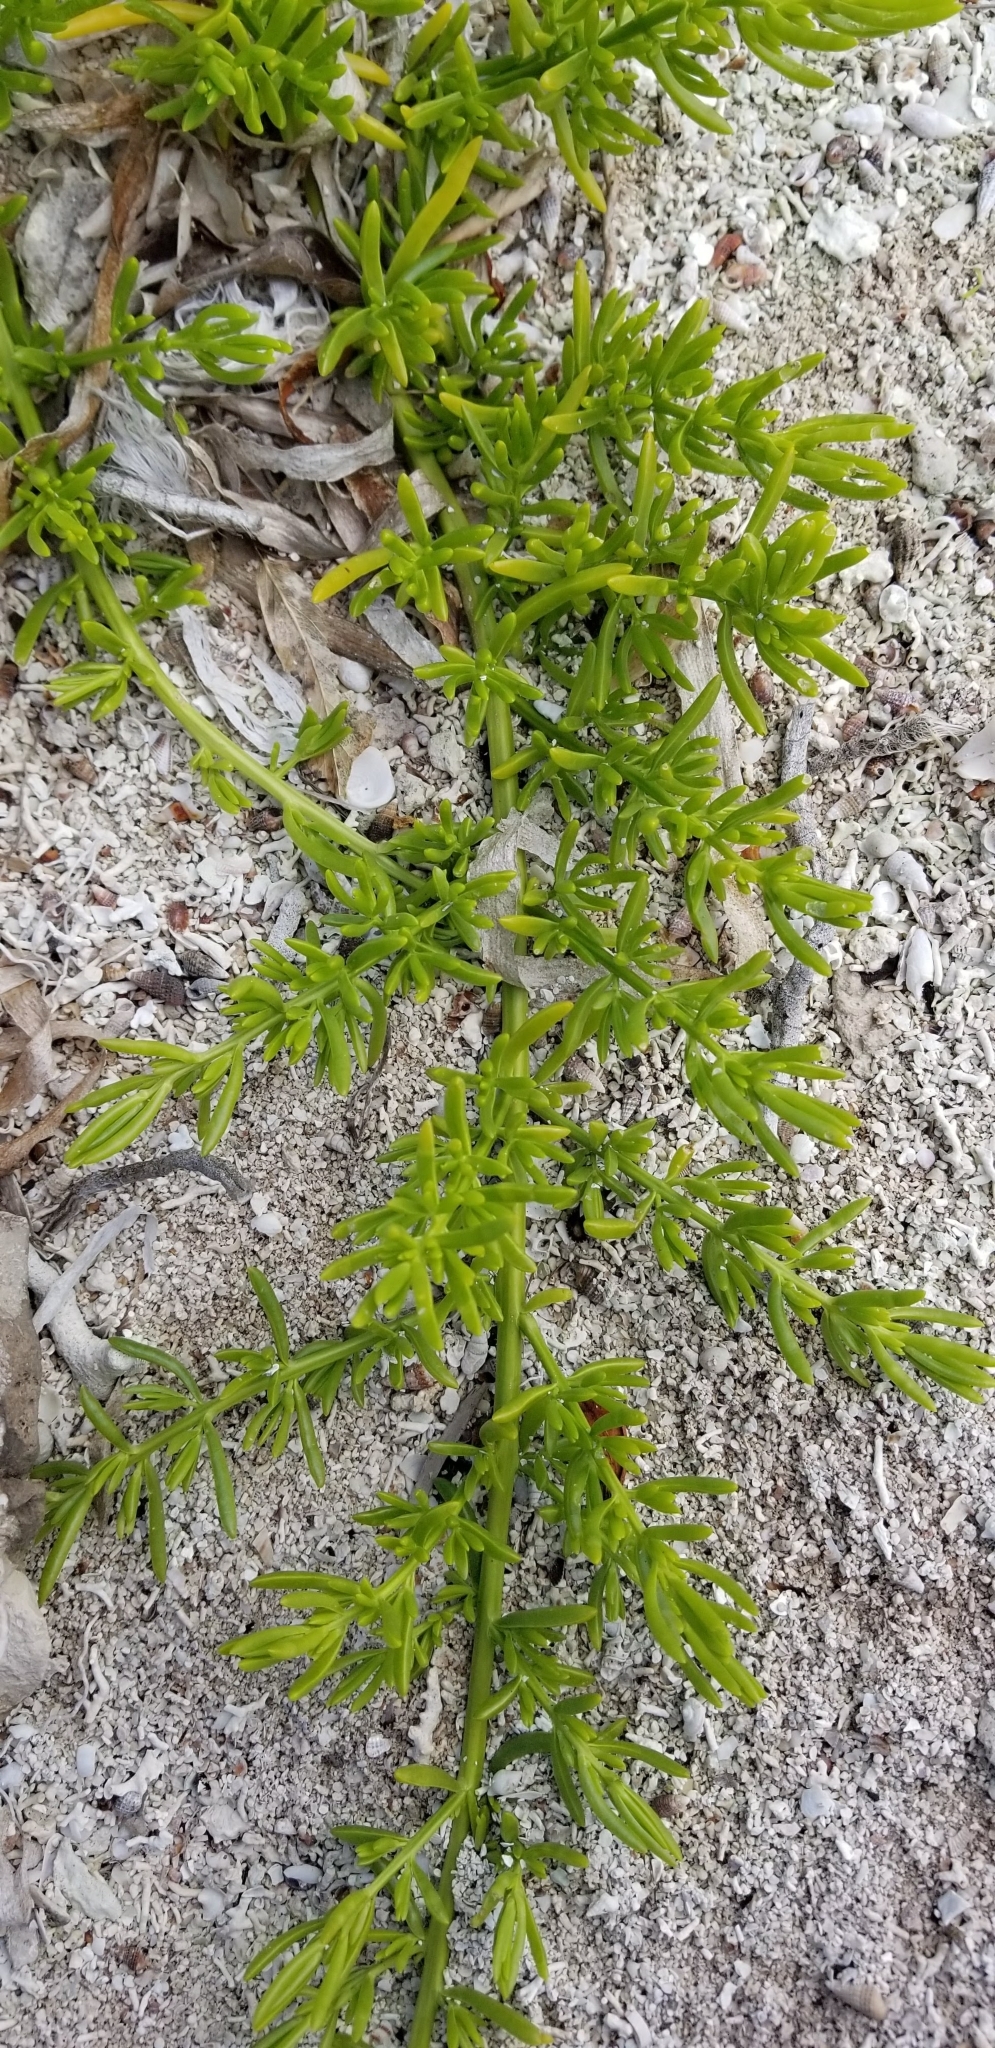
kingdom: Plantae
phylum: Tracheophyta
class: Magnoliopsida
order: Brassicales
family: Bataceae
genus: Batis
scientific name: Batis maritima
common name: Turtleweed
